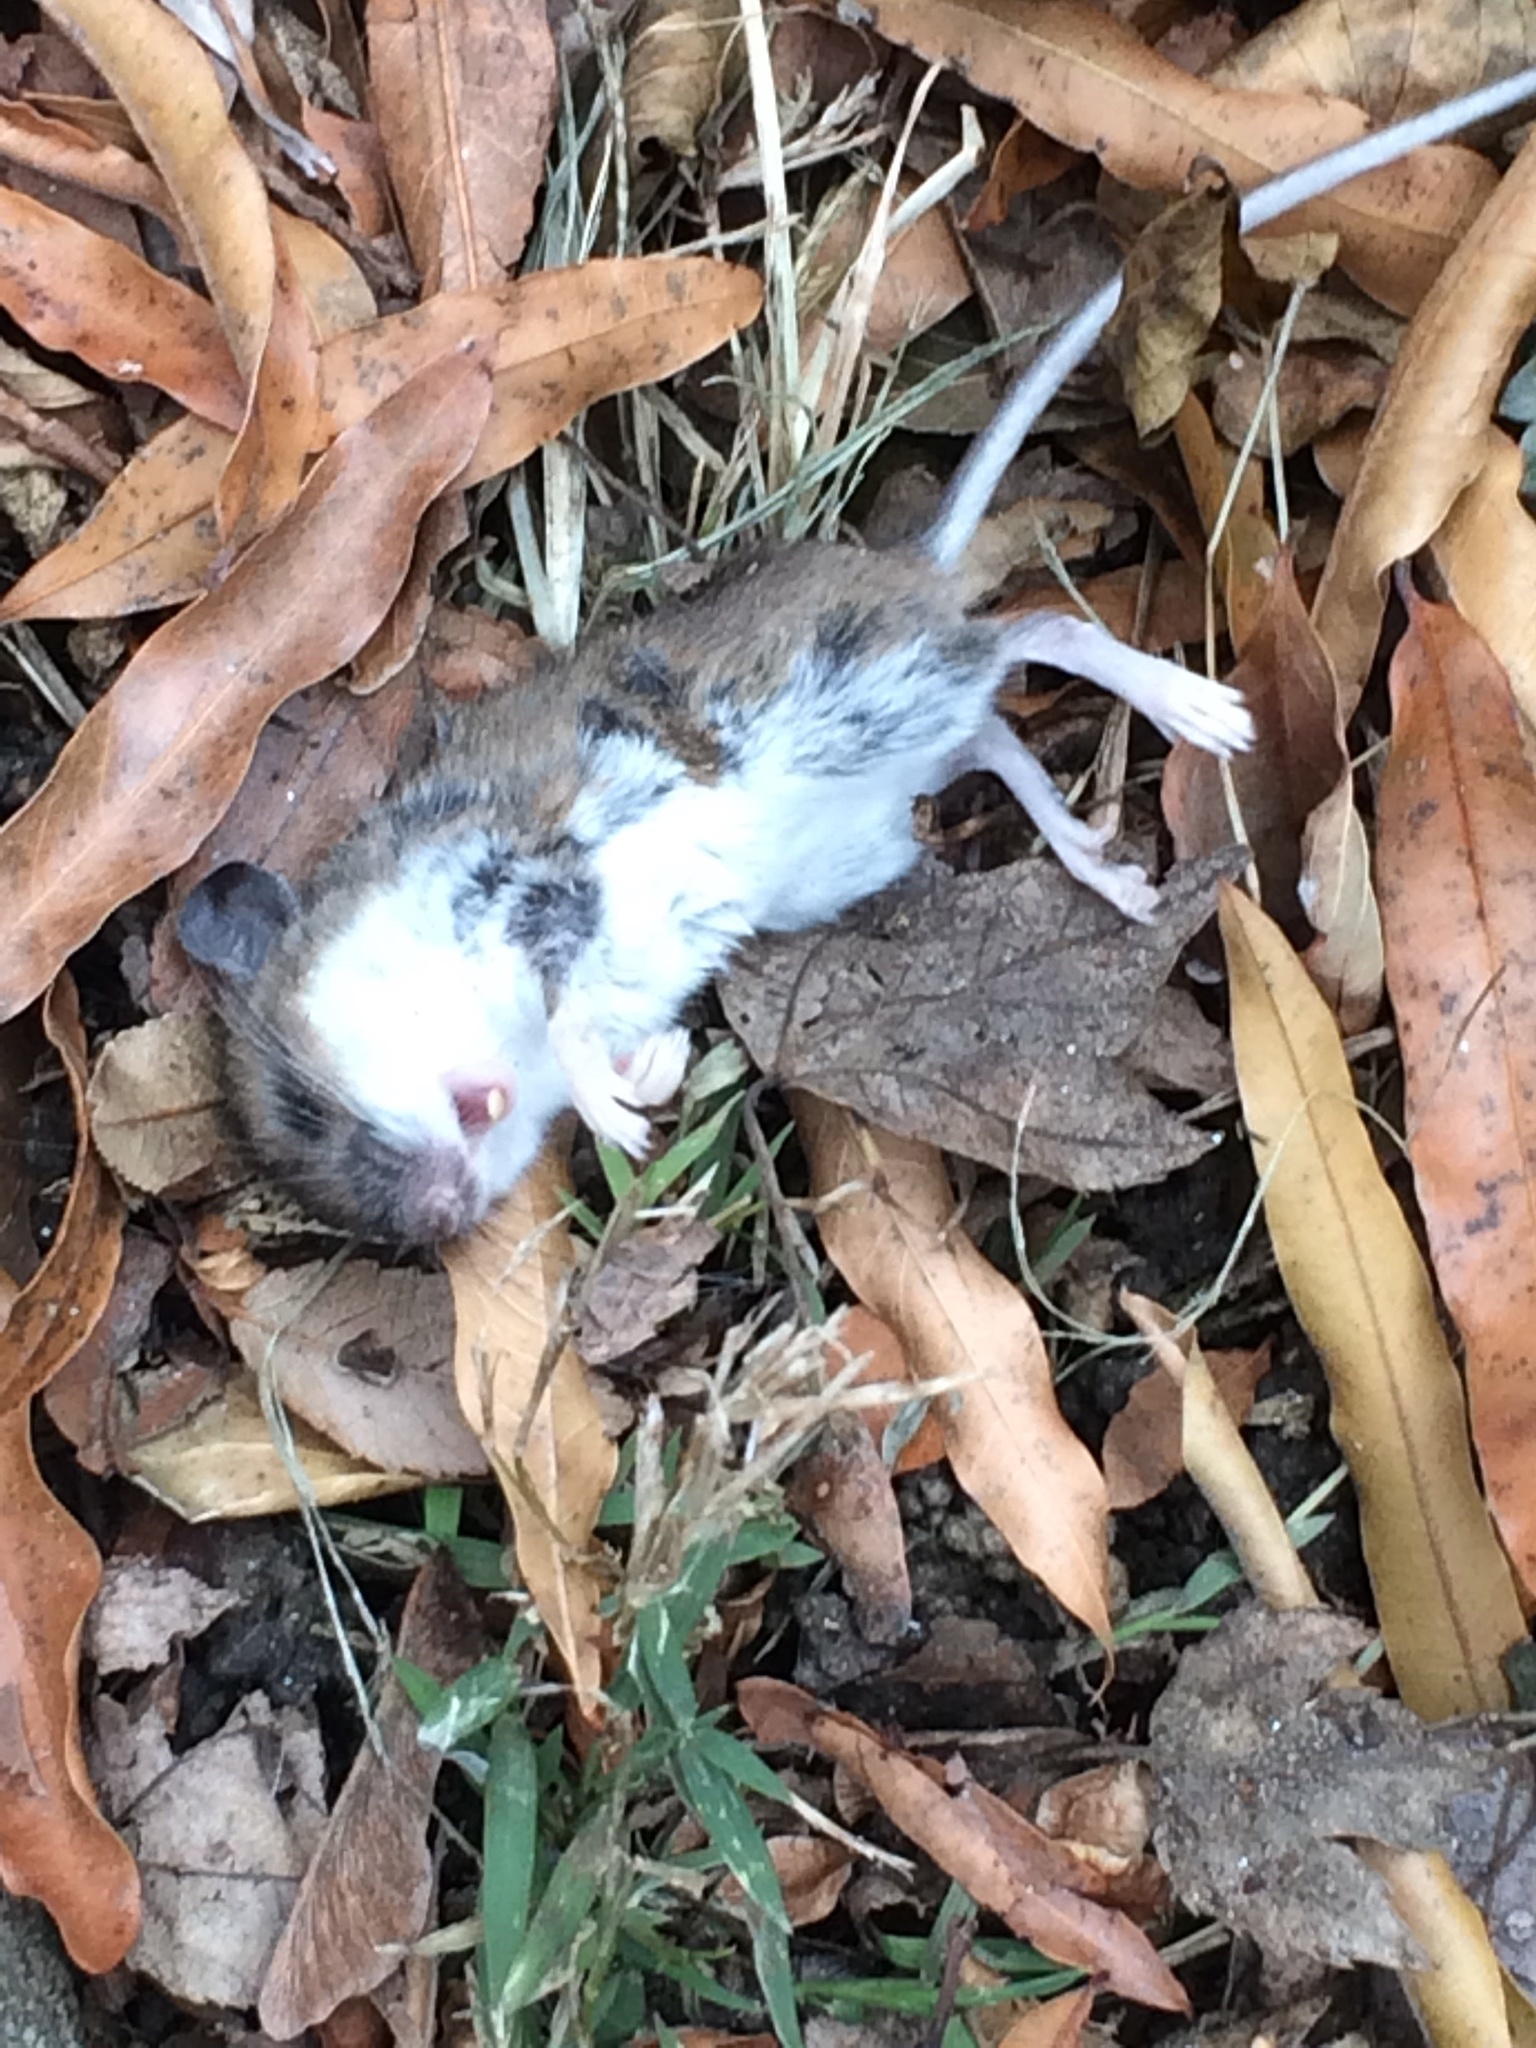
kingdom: Animalia
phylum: Chordata
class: Mammalia
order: Rodentia
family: Cricetidae
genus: Peromyscus
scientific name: Peromyscus leucopus
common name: White-footed deermouse
